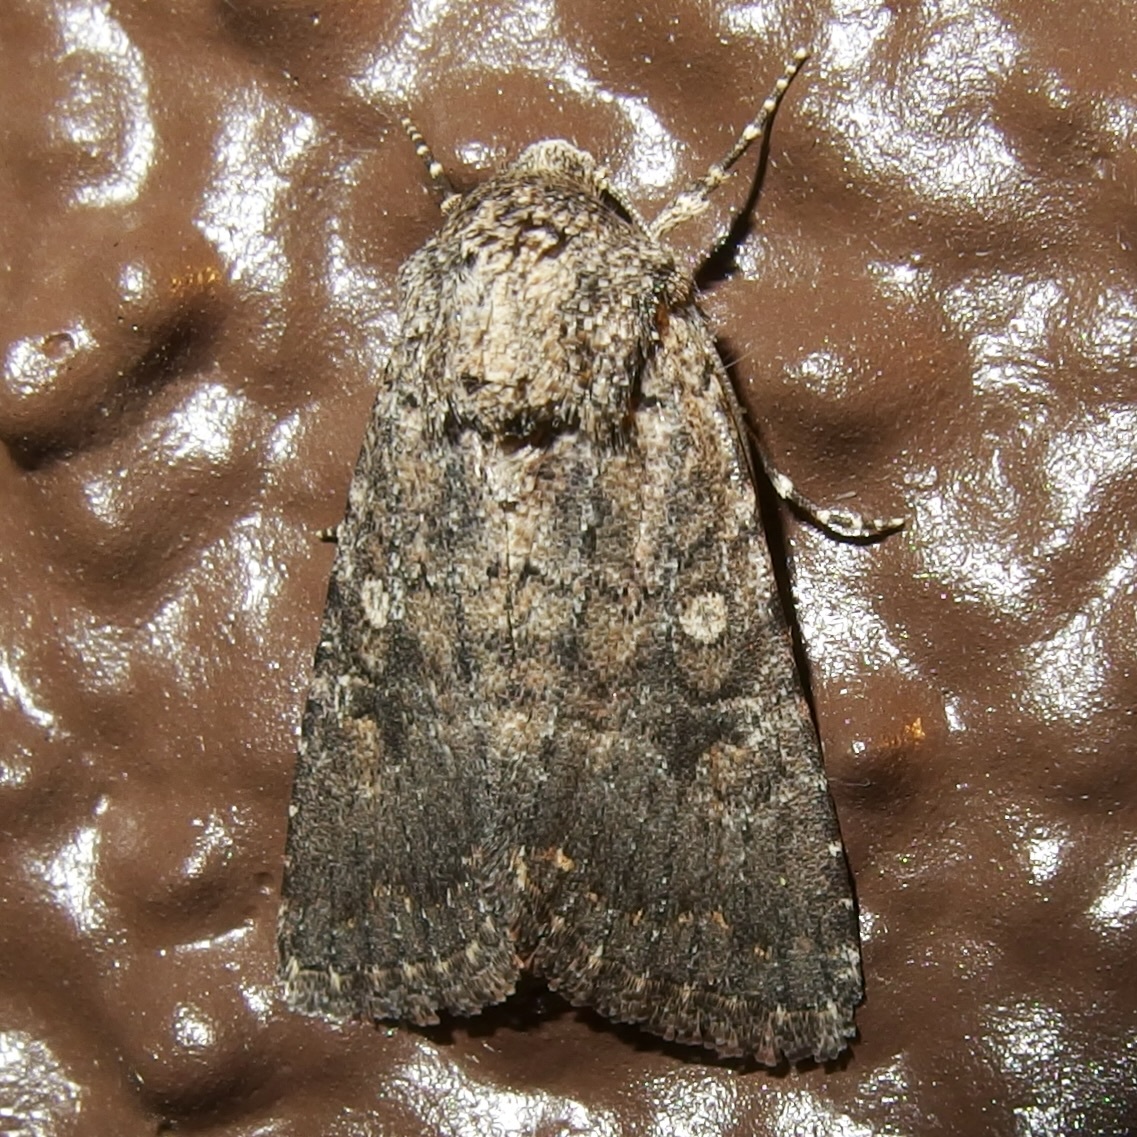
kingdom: Animalia
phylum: Arthropoda
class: Insecta
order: Lepidoptera
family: Noctuidae
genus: Trichopolia
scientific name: Trichopolia
